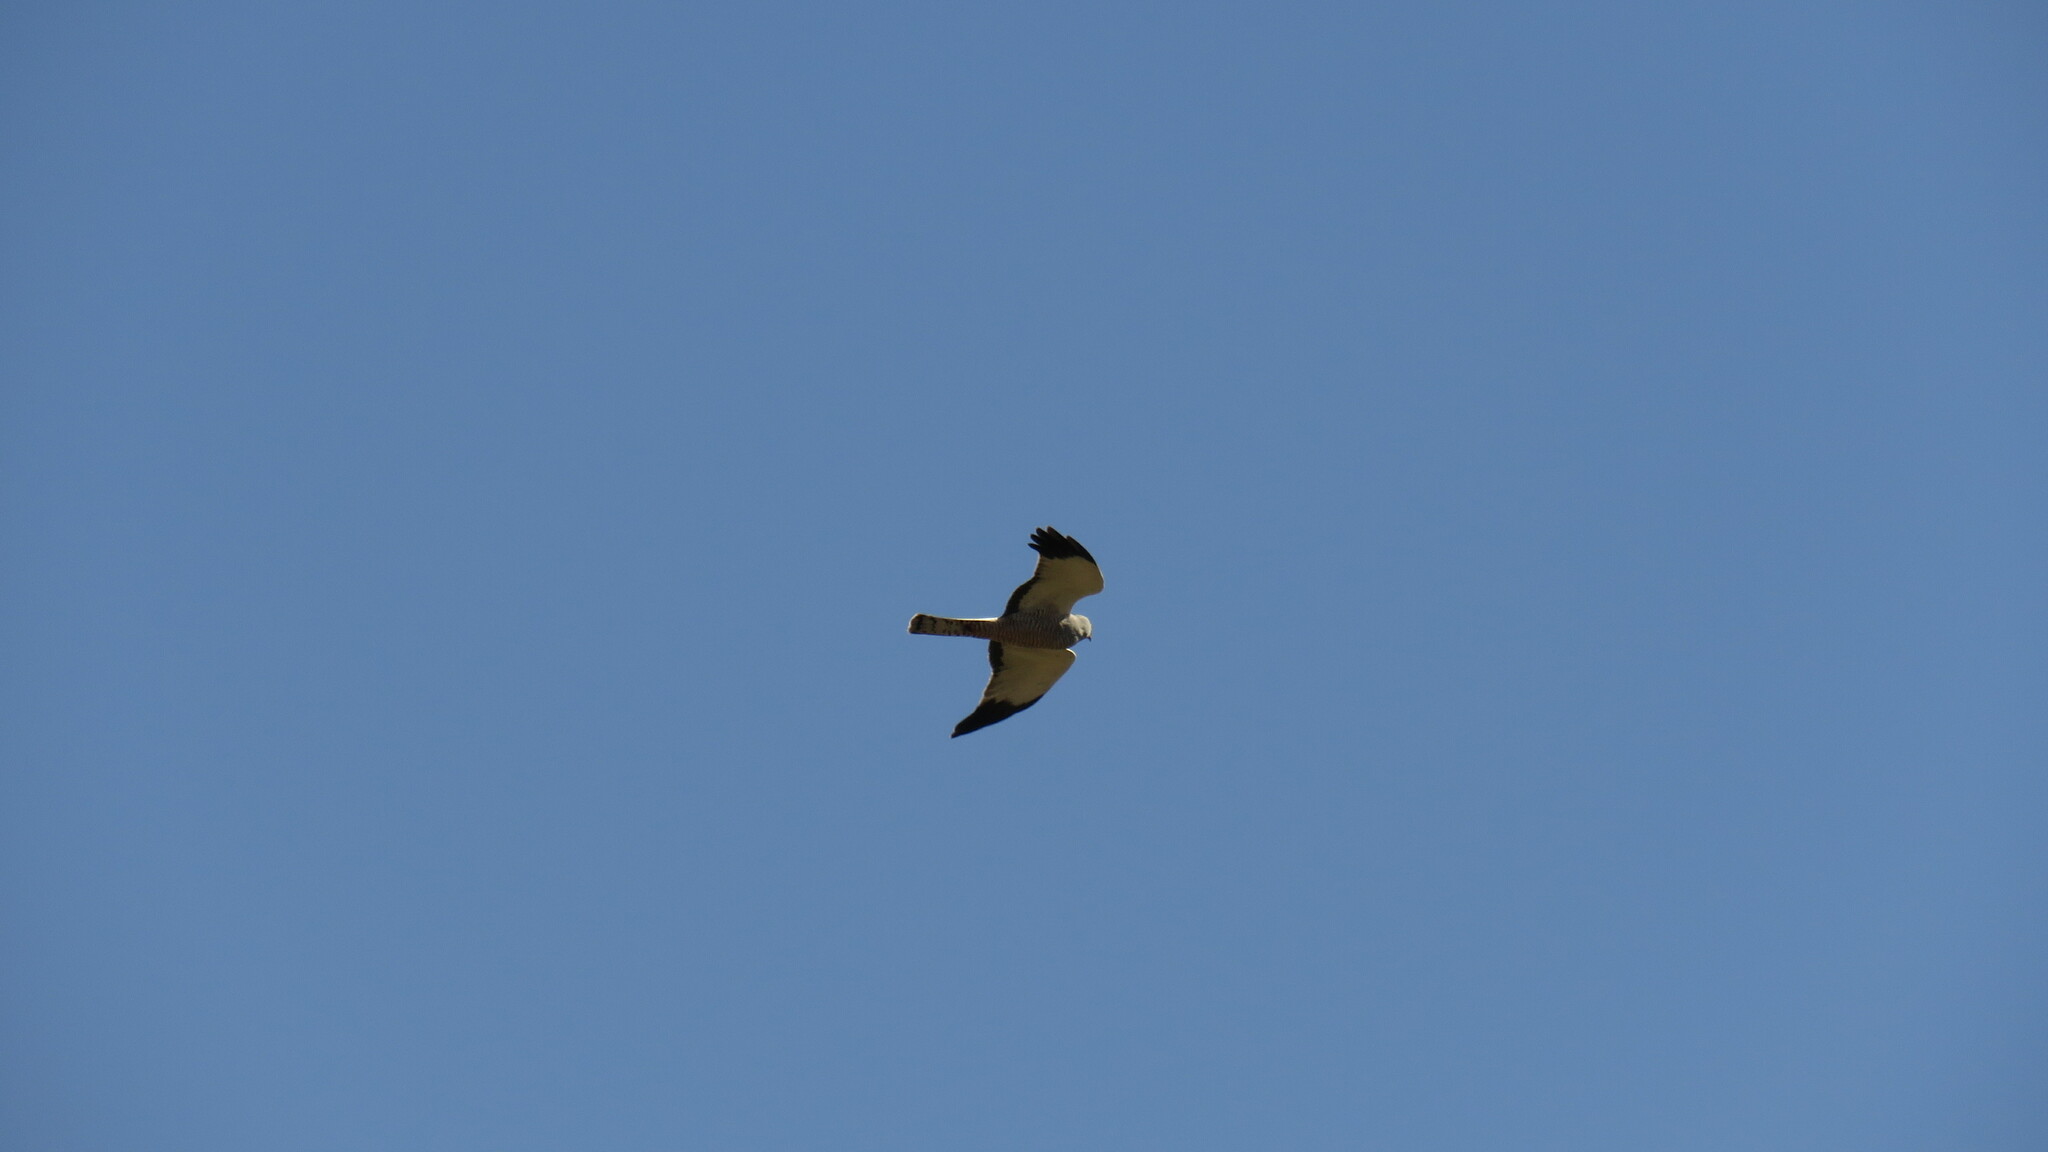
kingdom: Animalia
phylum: Chordata
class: Aves
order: Accipitriformes
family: Accipitridae
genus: Circus
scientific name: Circus cinereus
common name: Cinereous harrier
